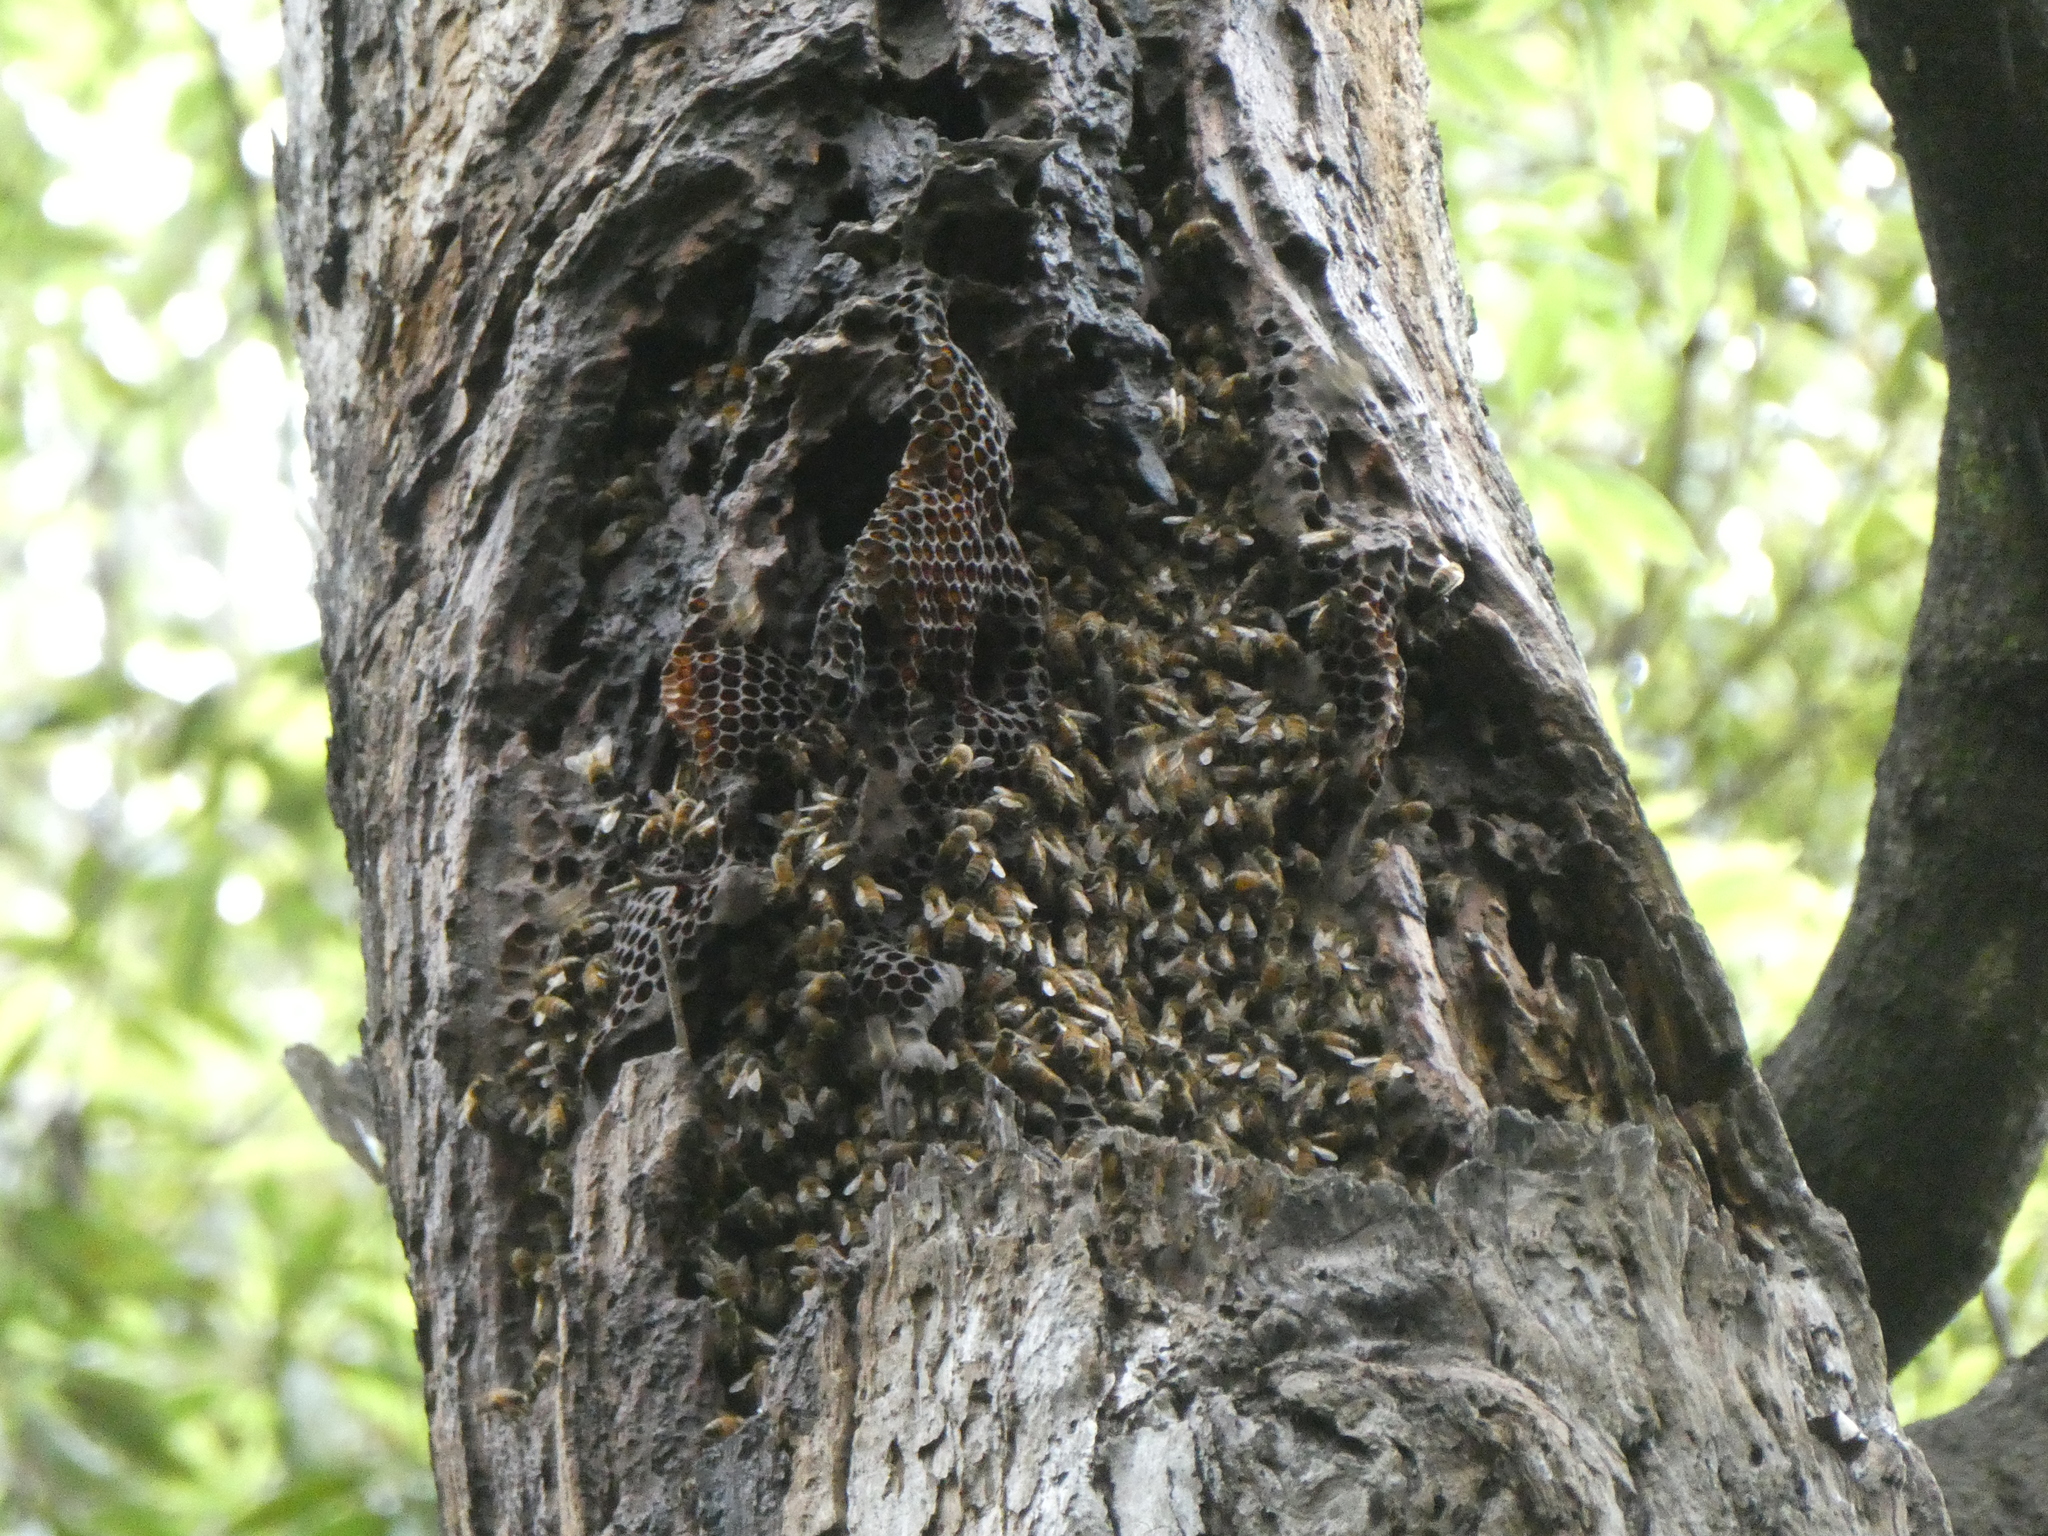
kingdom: Animalia
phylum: Arthropoda
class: Insecta
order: Hymenoptera
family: Apidae
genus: Apis
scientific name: Apis mellifera
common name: Honey bee
